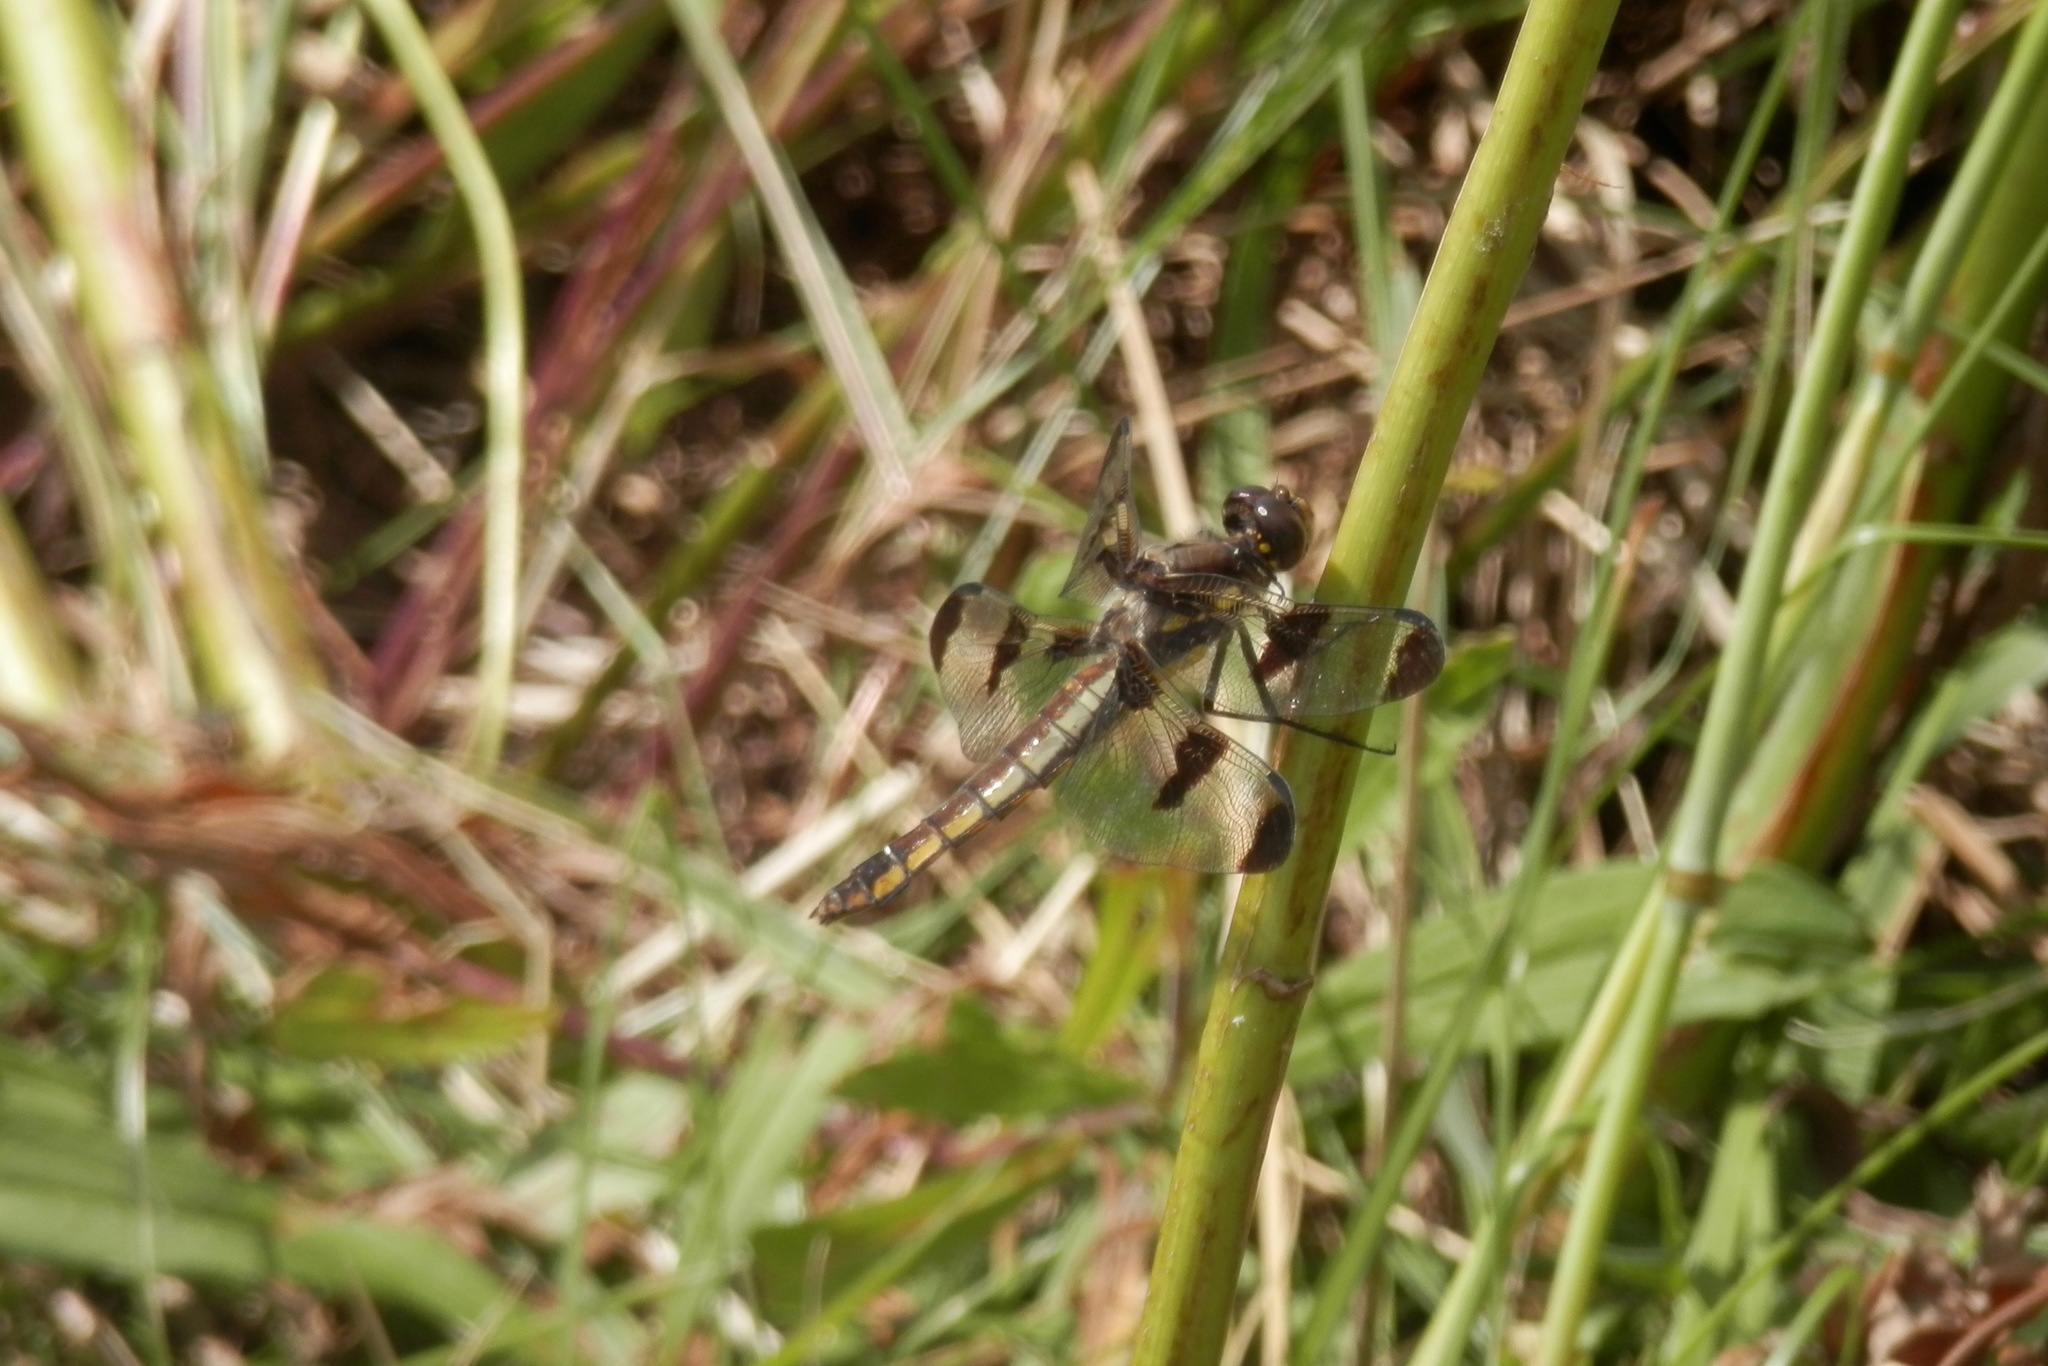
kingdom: Animalia
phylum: Arthropoda
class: Insecta
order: Odonata
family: Libellulidae
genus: Libellula
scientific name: Libellula pulchella
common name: Twelve-spotted skimmer
